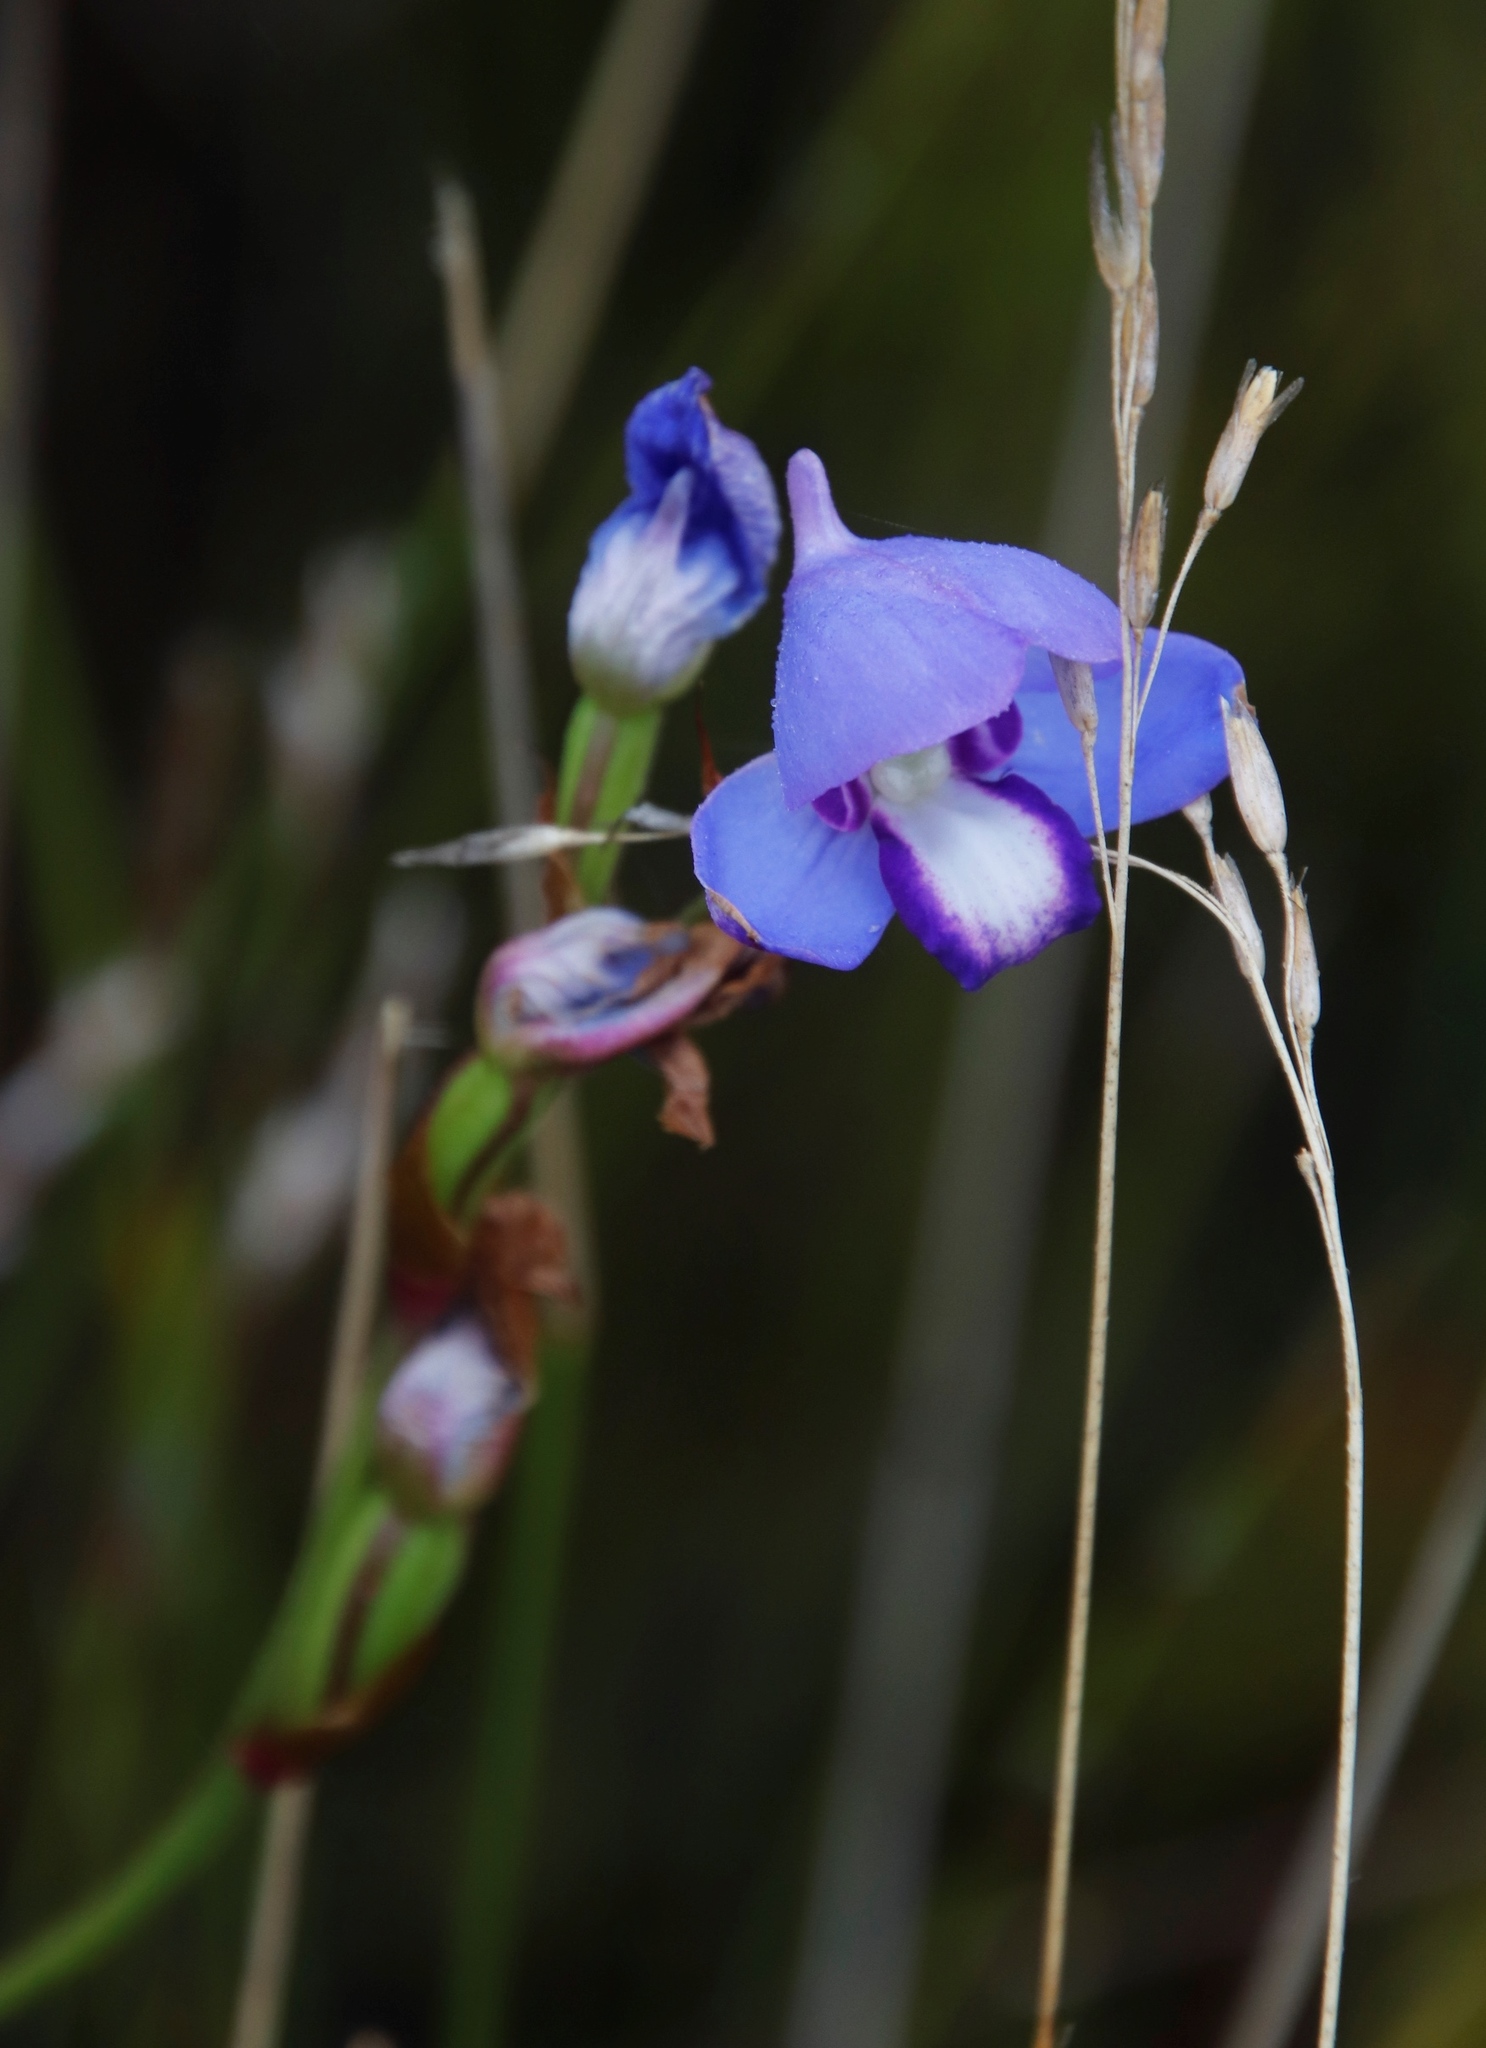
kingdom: Plantae
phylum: Tracheophyta
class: Liliopsida
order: Asparagales
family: Orchidaceae
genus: Disa
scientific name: Disa graminifolia
